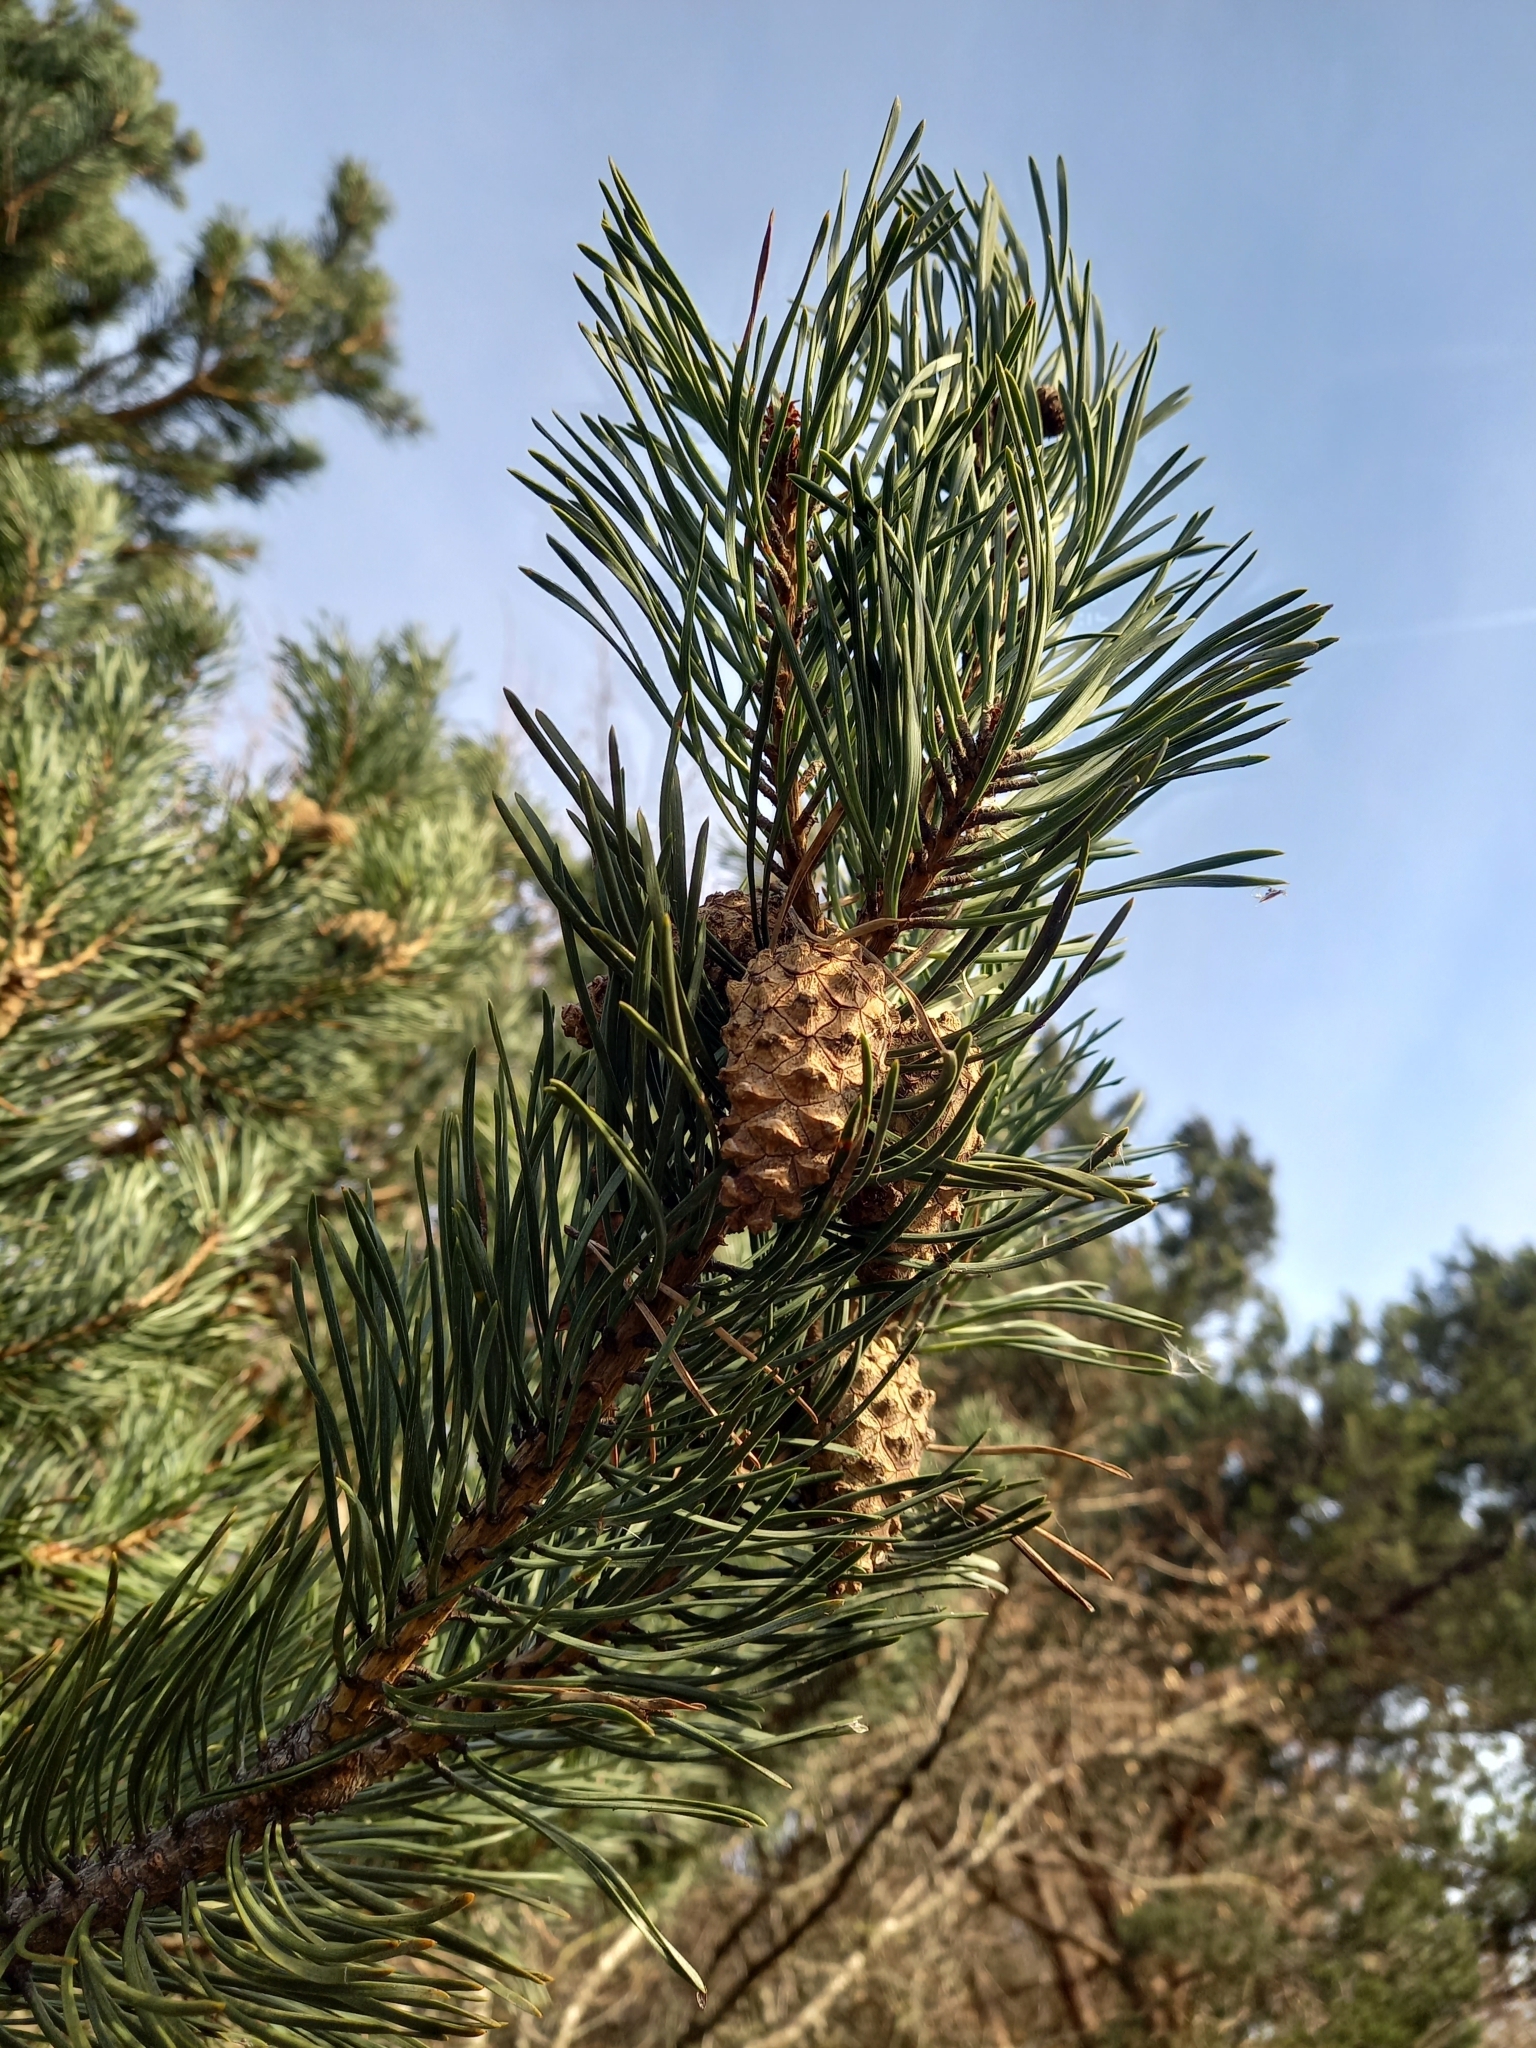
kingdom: Plantae
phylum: Tracheophyta
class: Pinopsida
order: Pinales
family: Pinaceae
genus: Pinus
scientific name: Pinus sylvestris
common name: Scots pine
